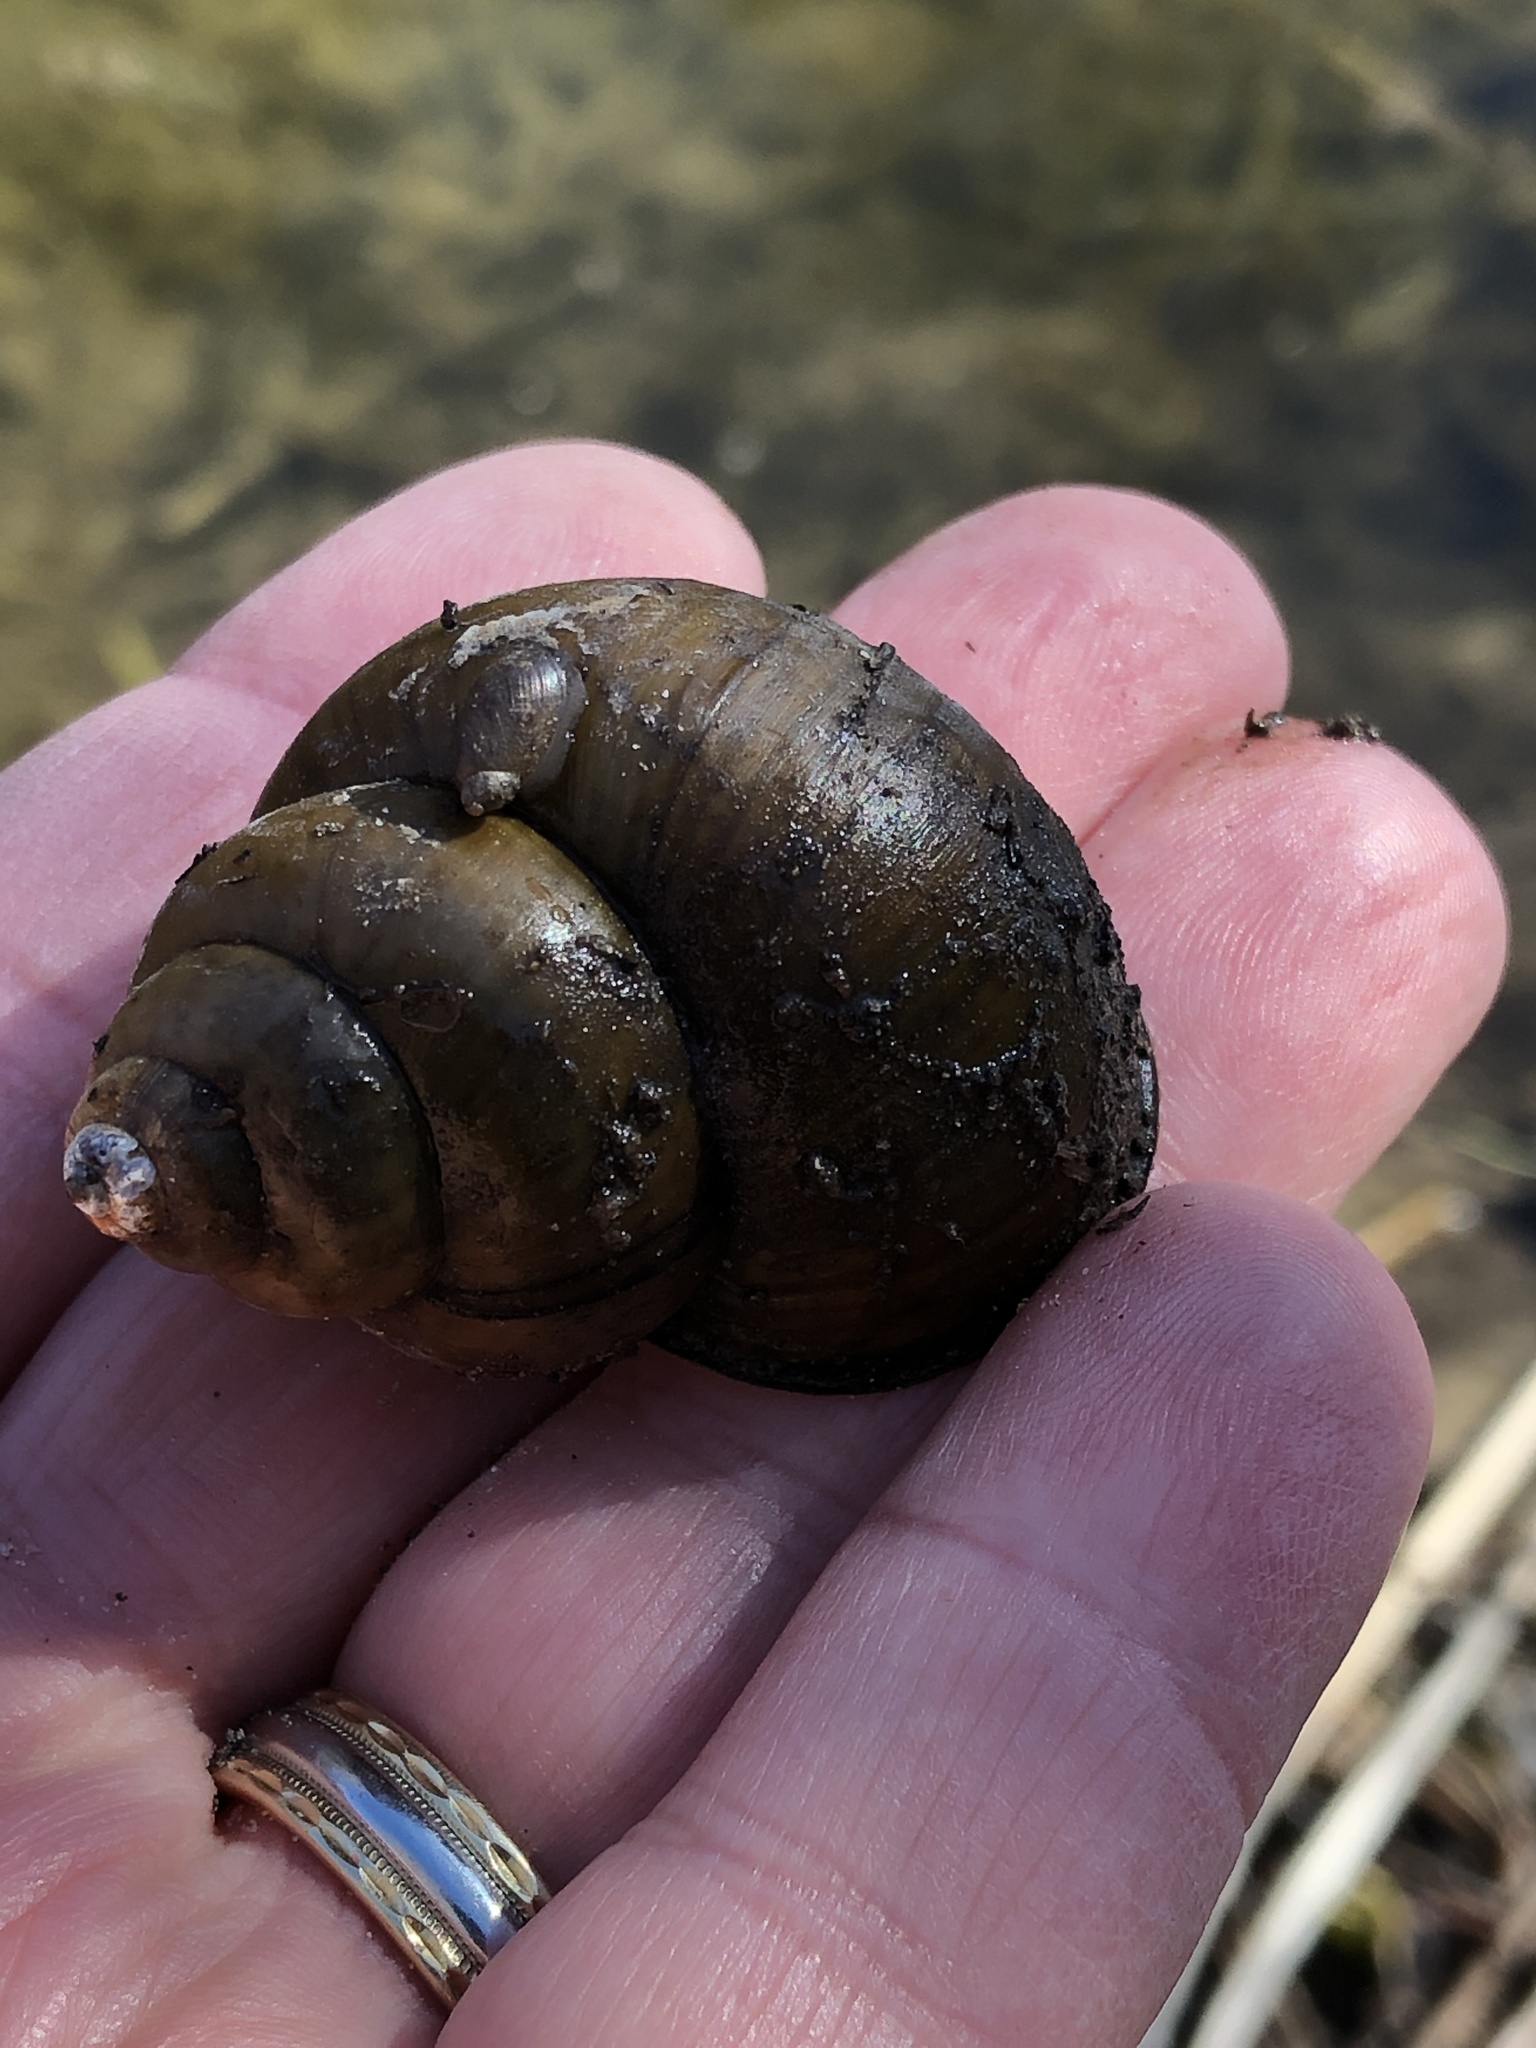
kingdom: Animalia
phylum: Mollusca
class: Gastropoda
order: Architaenioglossa
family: Viviparidae
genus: Cipangopaludina
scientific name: Cipangopaludina chinensis
